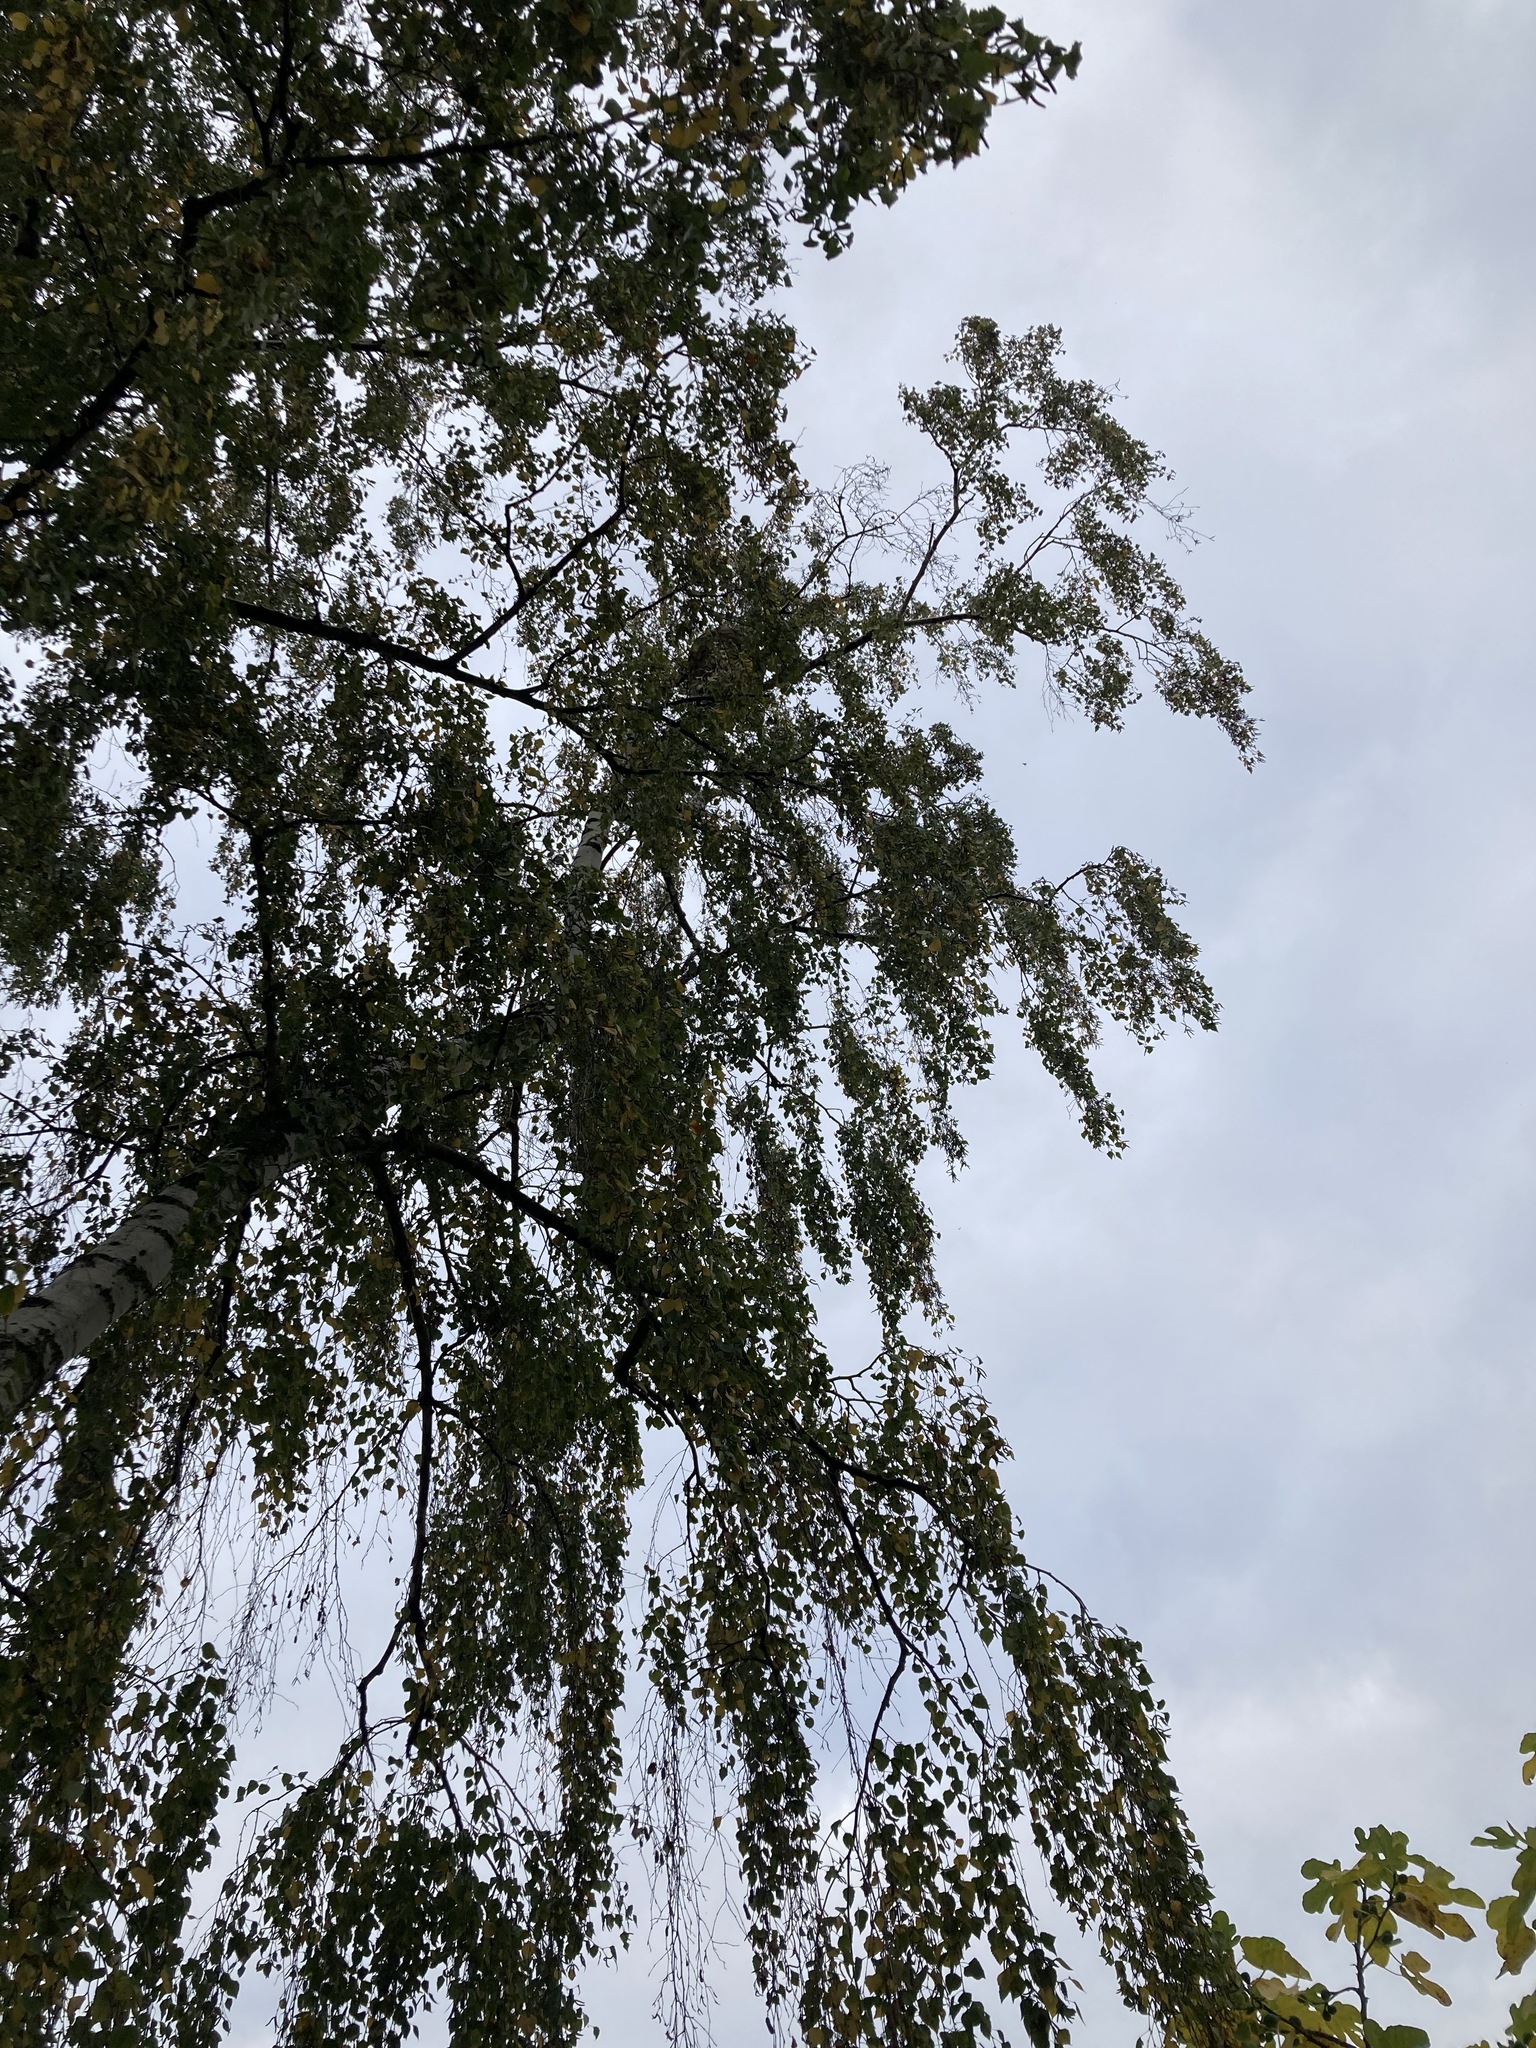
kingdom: Animalia
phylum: Arthropoda
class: Insecta
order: Hymenoptera
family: Vespidae
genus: Vespa
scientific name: Vespa velutina
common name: Asian hornet
